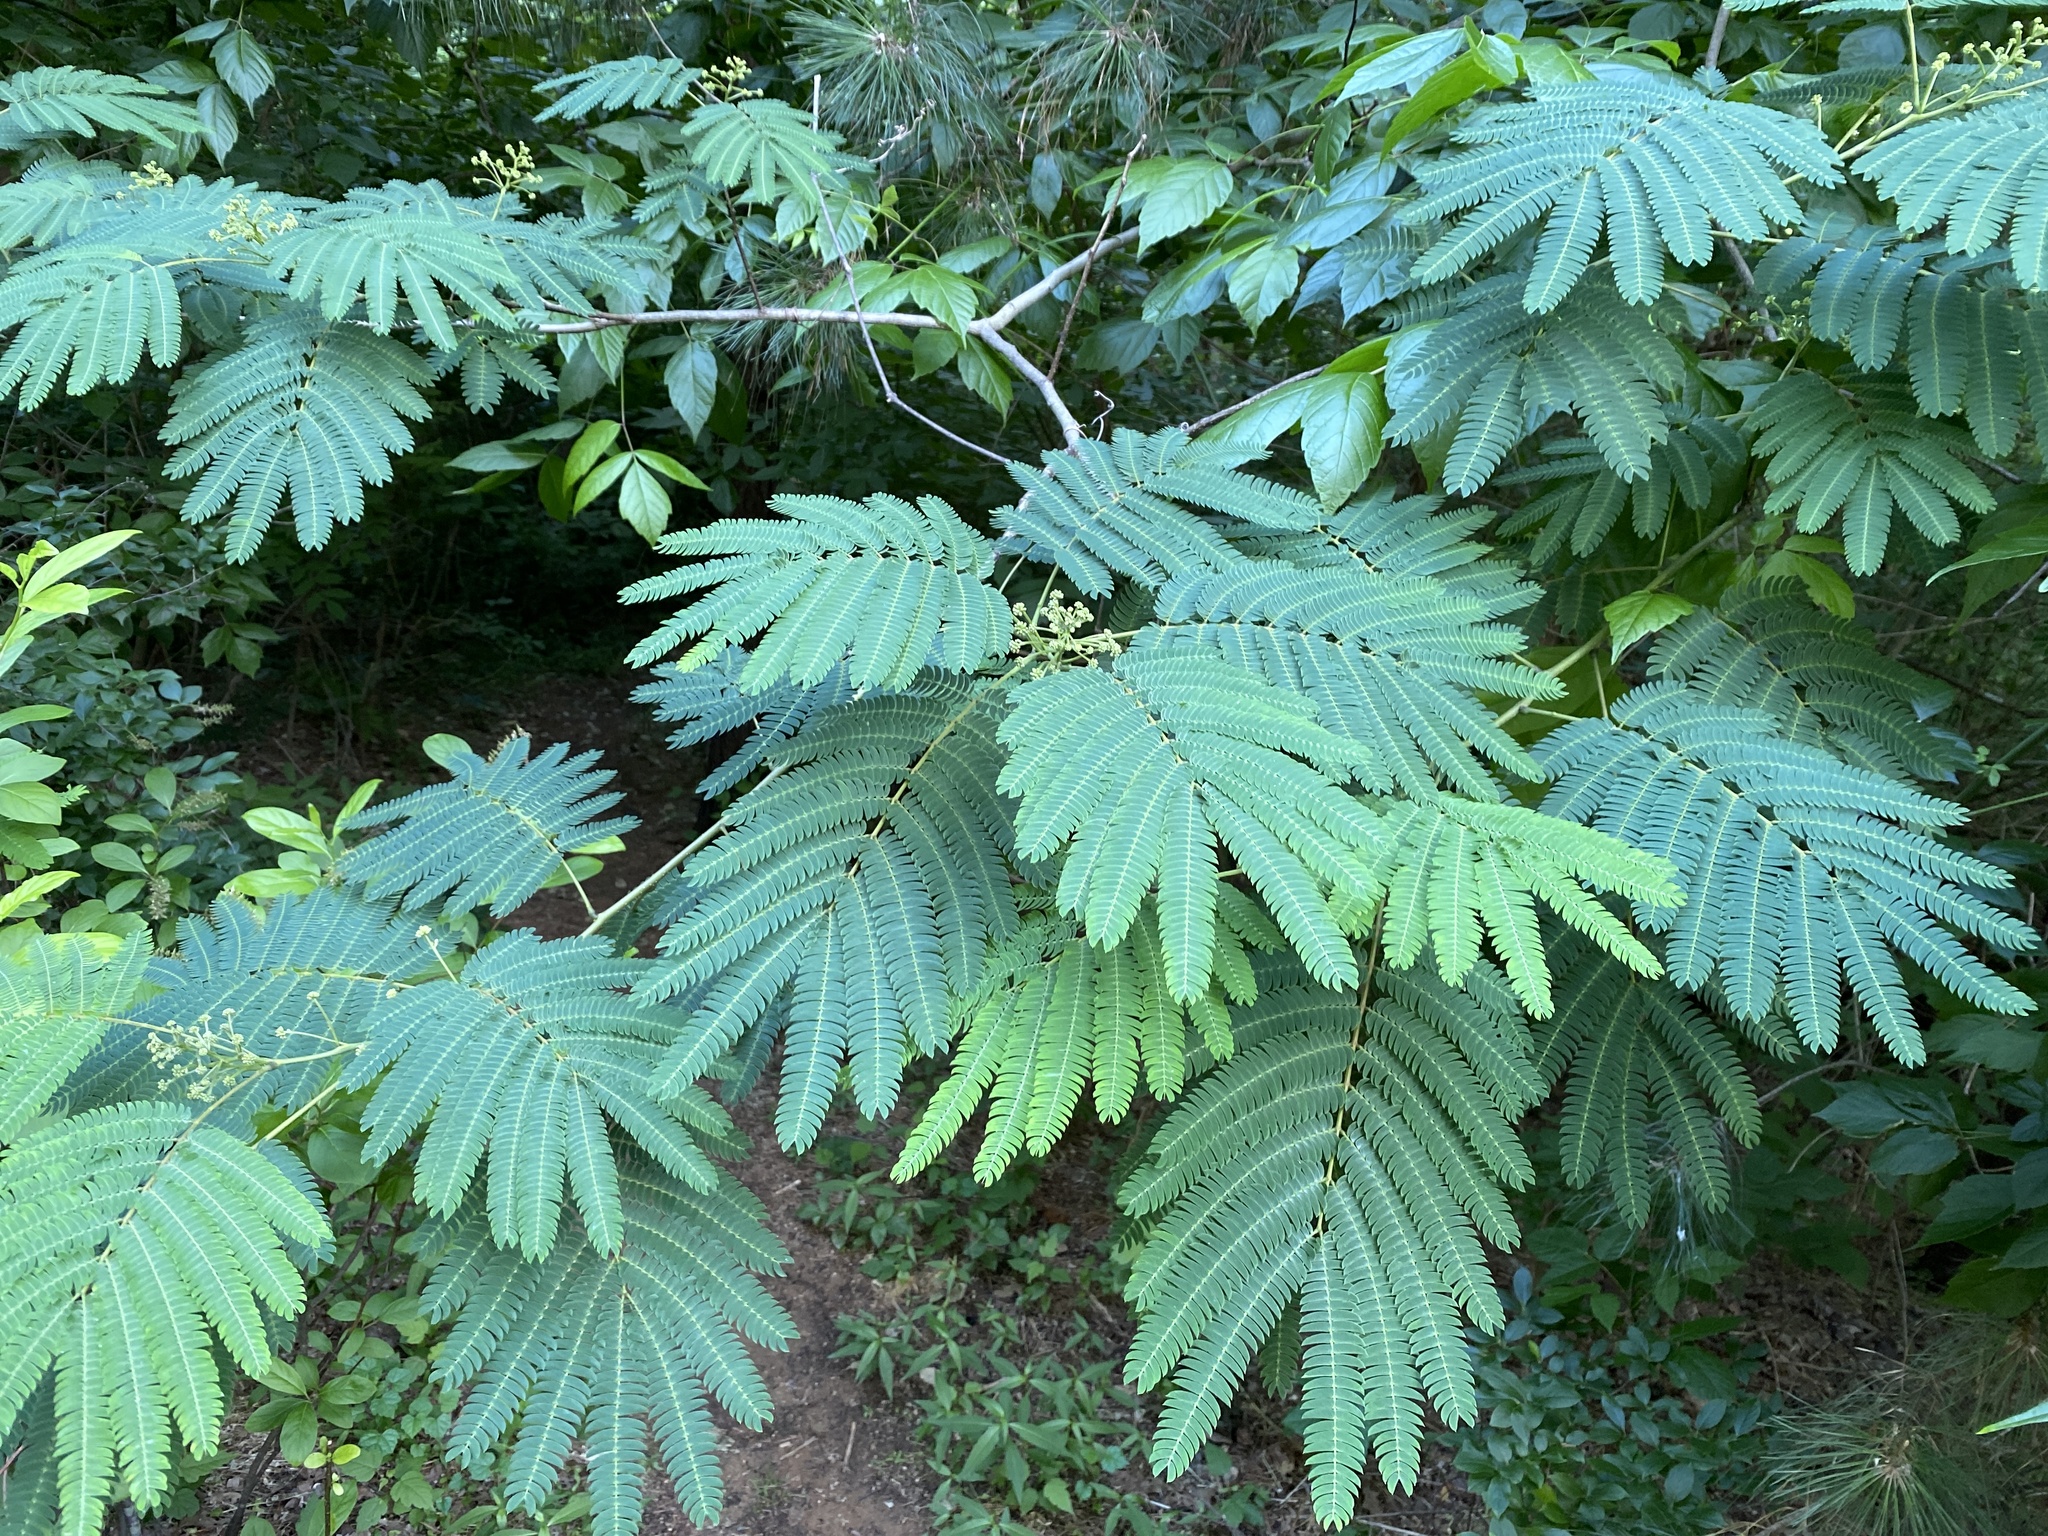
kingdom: Plantae
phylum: Tracheophyta
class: Magnoliopsida
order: Fabales
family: Fabaceae
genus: Albizia
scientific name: Albizia julibrissin
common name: Silktree
